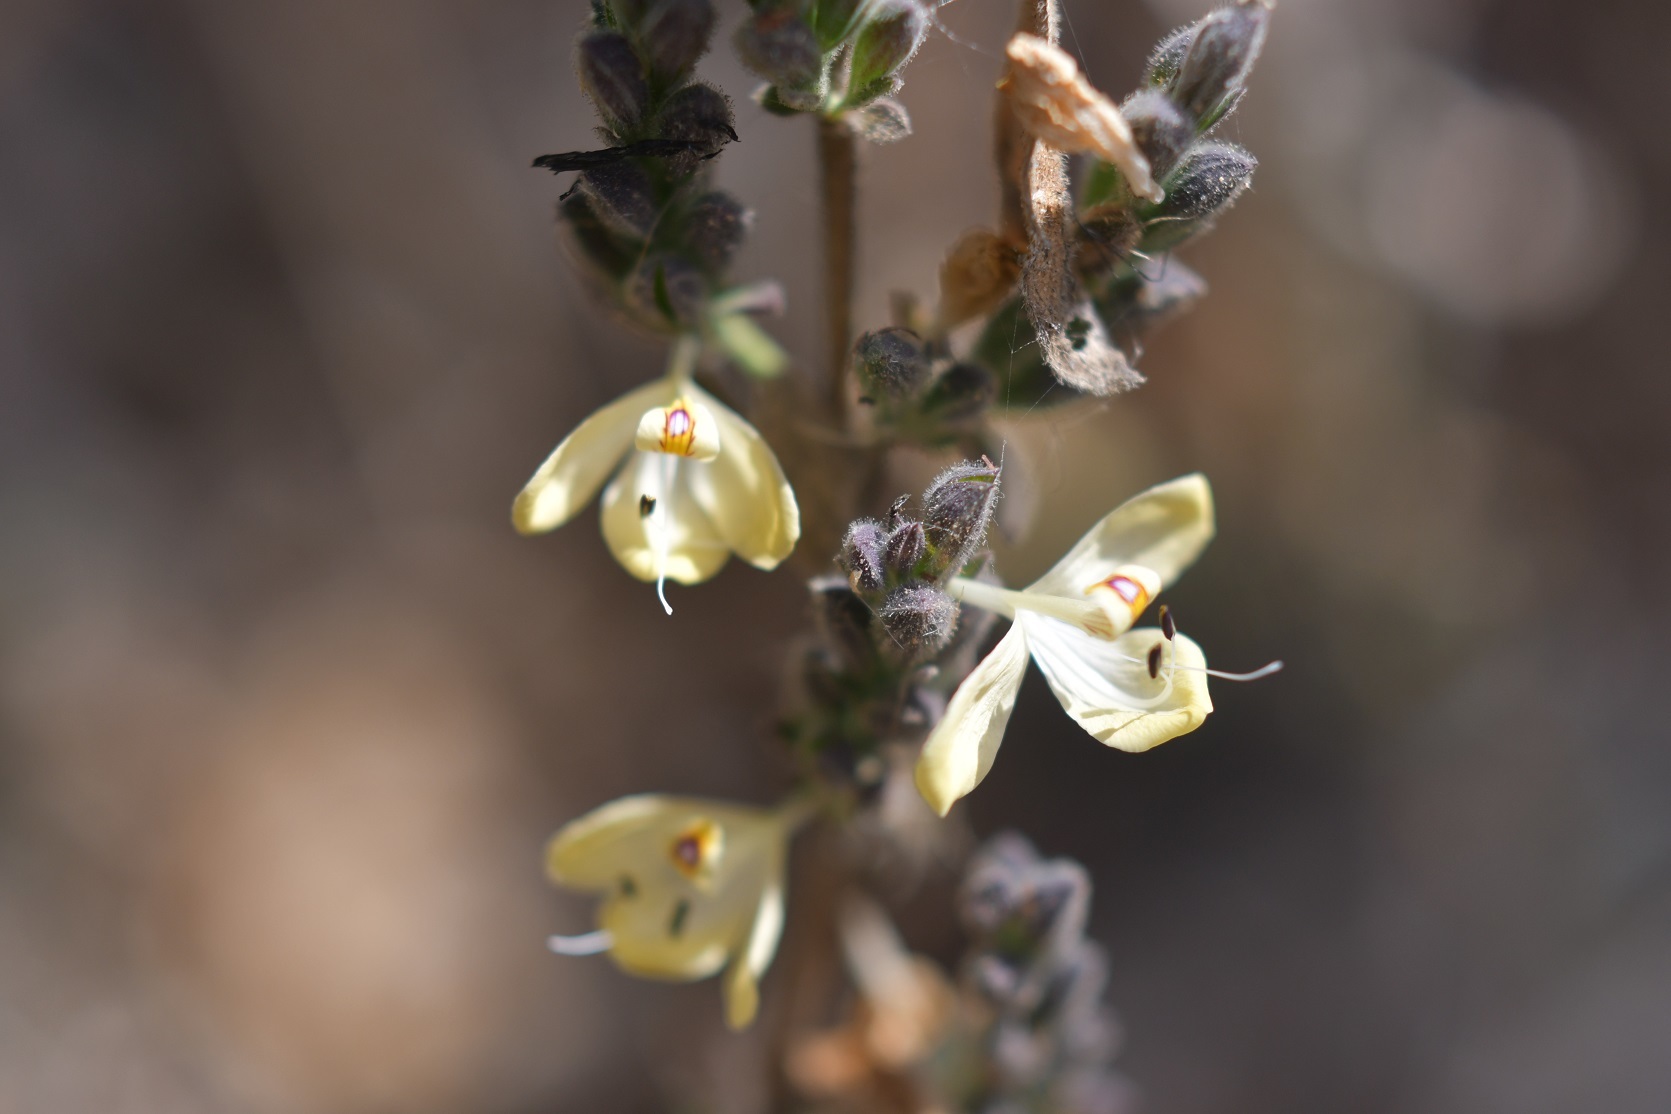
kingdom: Plantae
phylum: Tracheophyta
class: Magnoliopsida
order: Lamiales
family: Acanthaceae
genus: Henrya
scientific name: Henrya insularis
